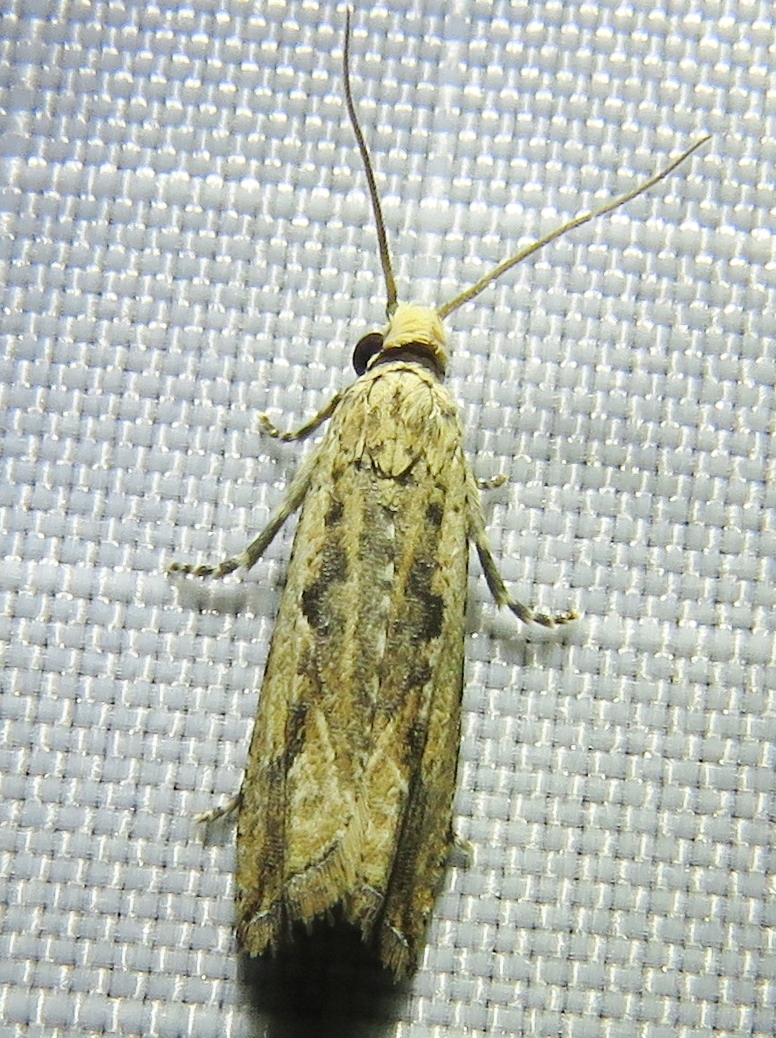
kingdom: Animalia
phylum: Arthropoda
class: Insecta
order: Lepidoptera
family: Tortricidae
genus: Bactra
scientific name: Bactra verutana
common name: Javelin moth
